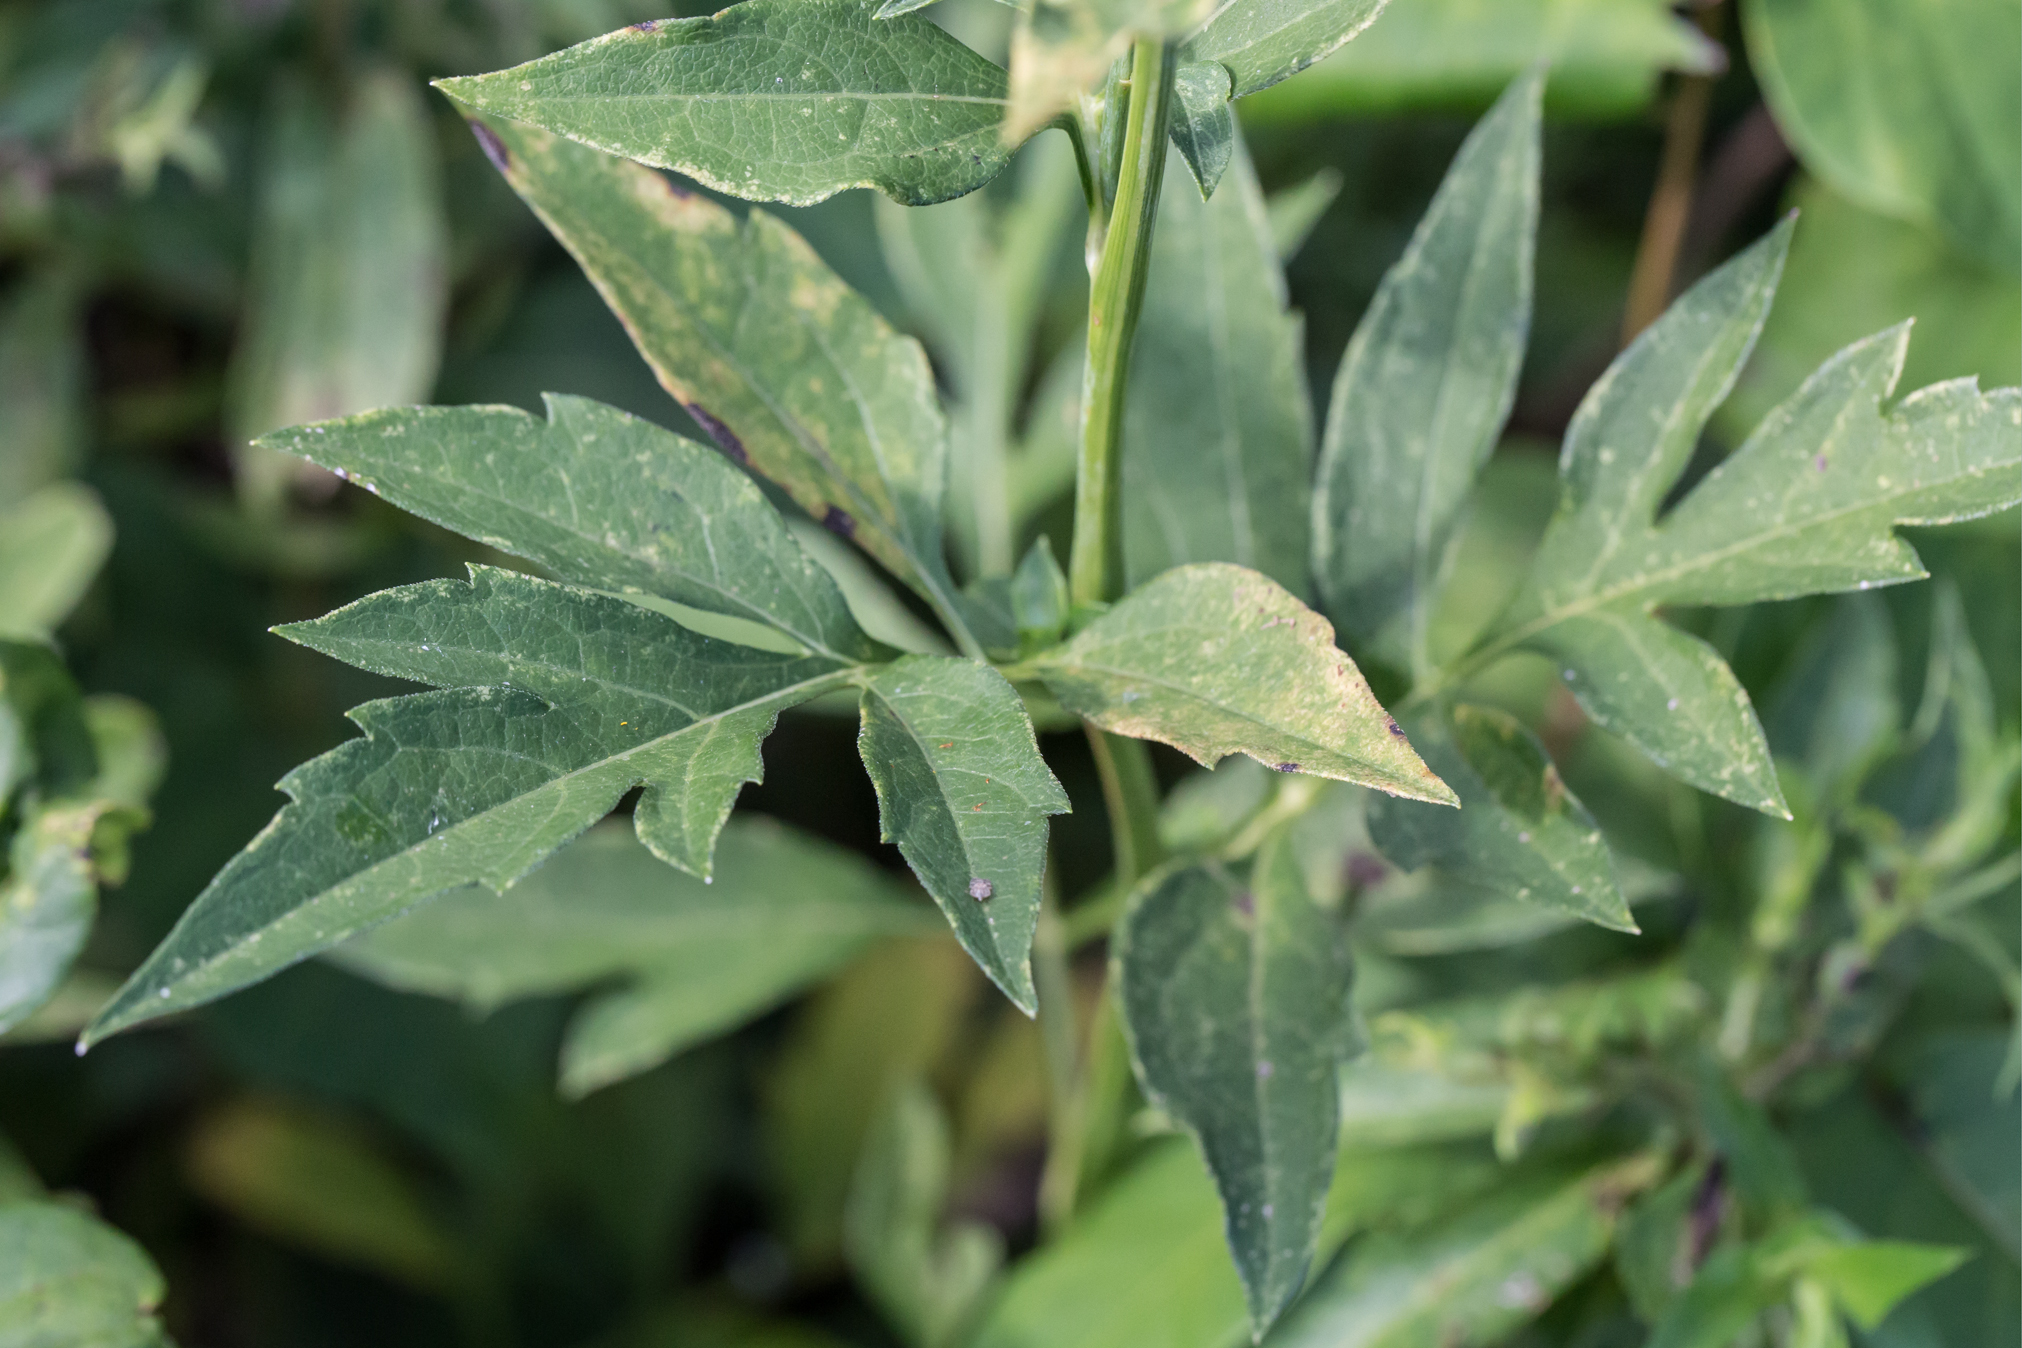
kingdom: Plantae
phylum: Tracheophyta
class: Magnoliopsida
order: Asterales
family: Asteraceae
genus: Rudbeckia
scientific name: Rudbeckia laciniata
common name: Coneflower
